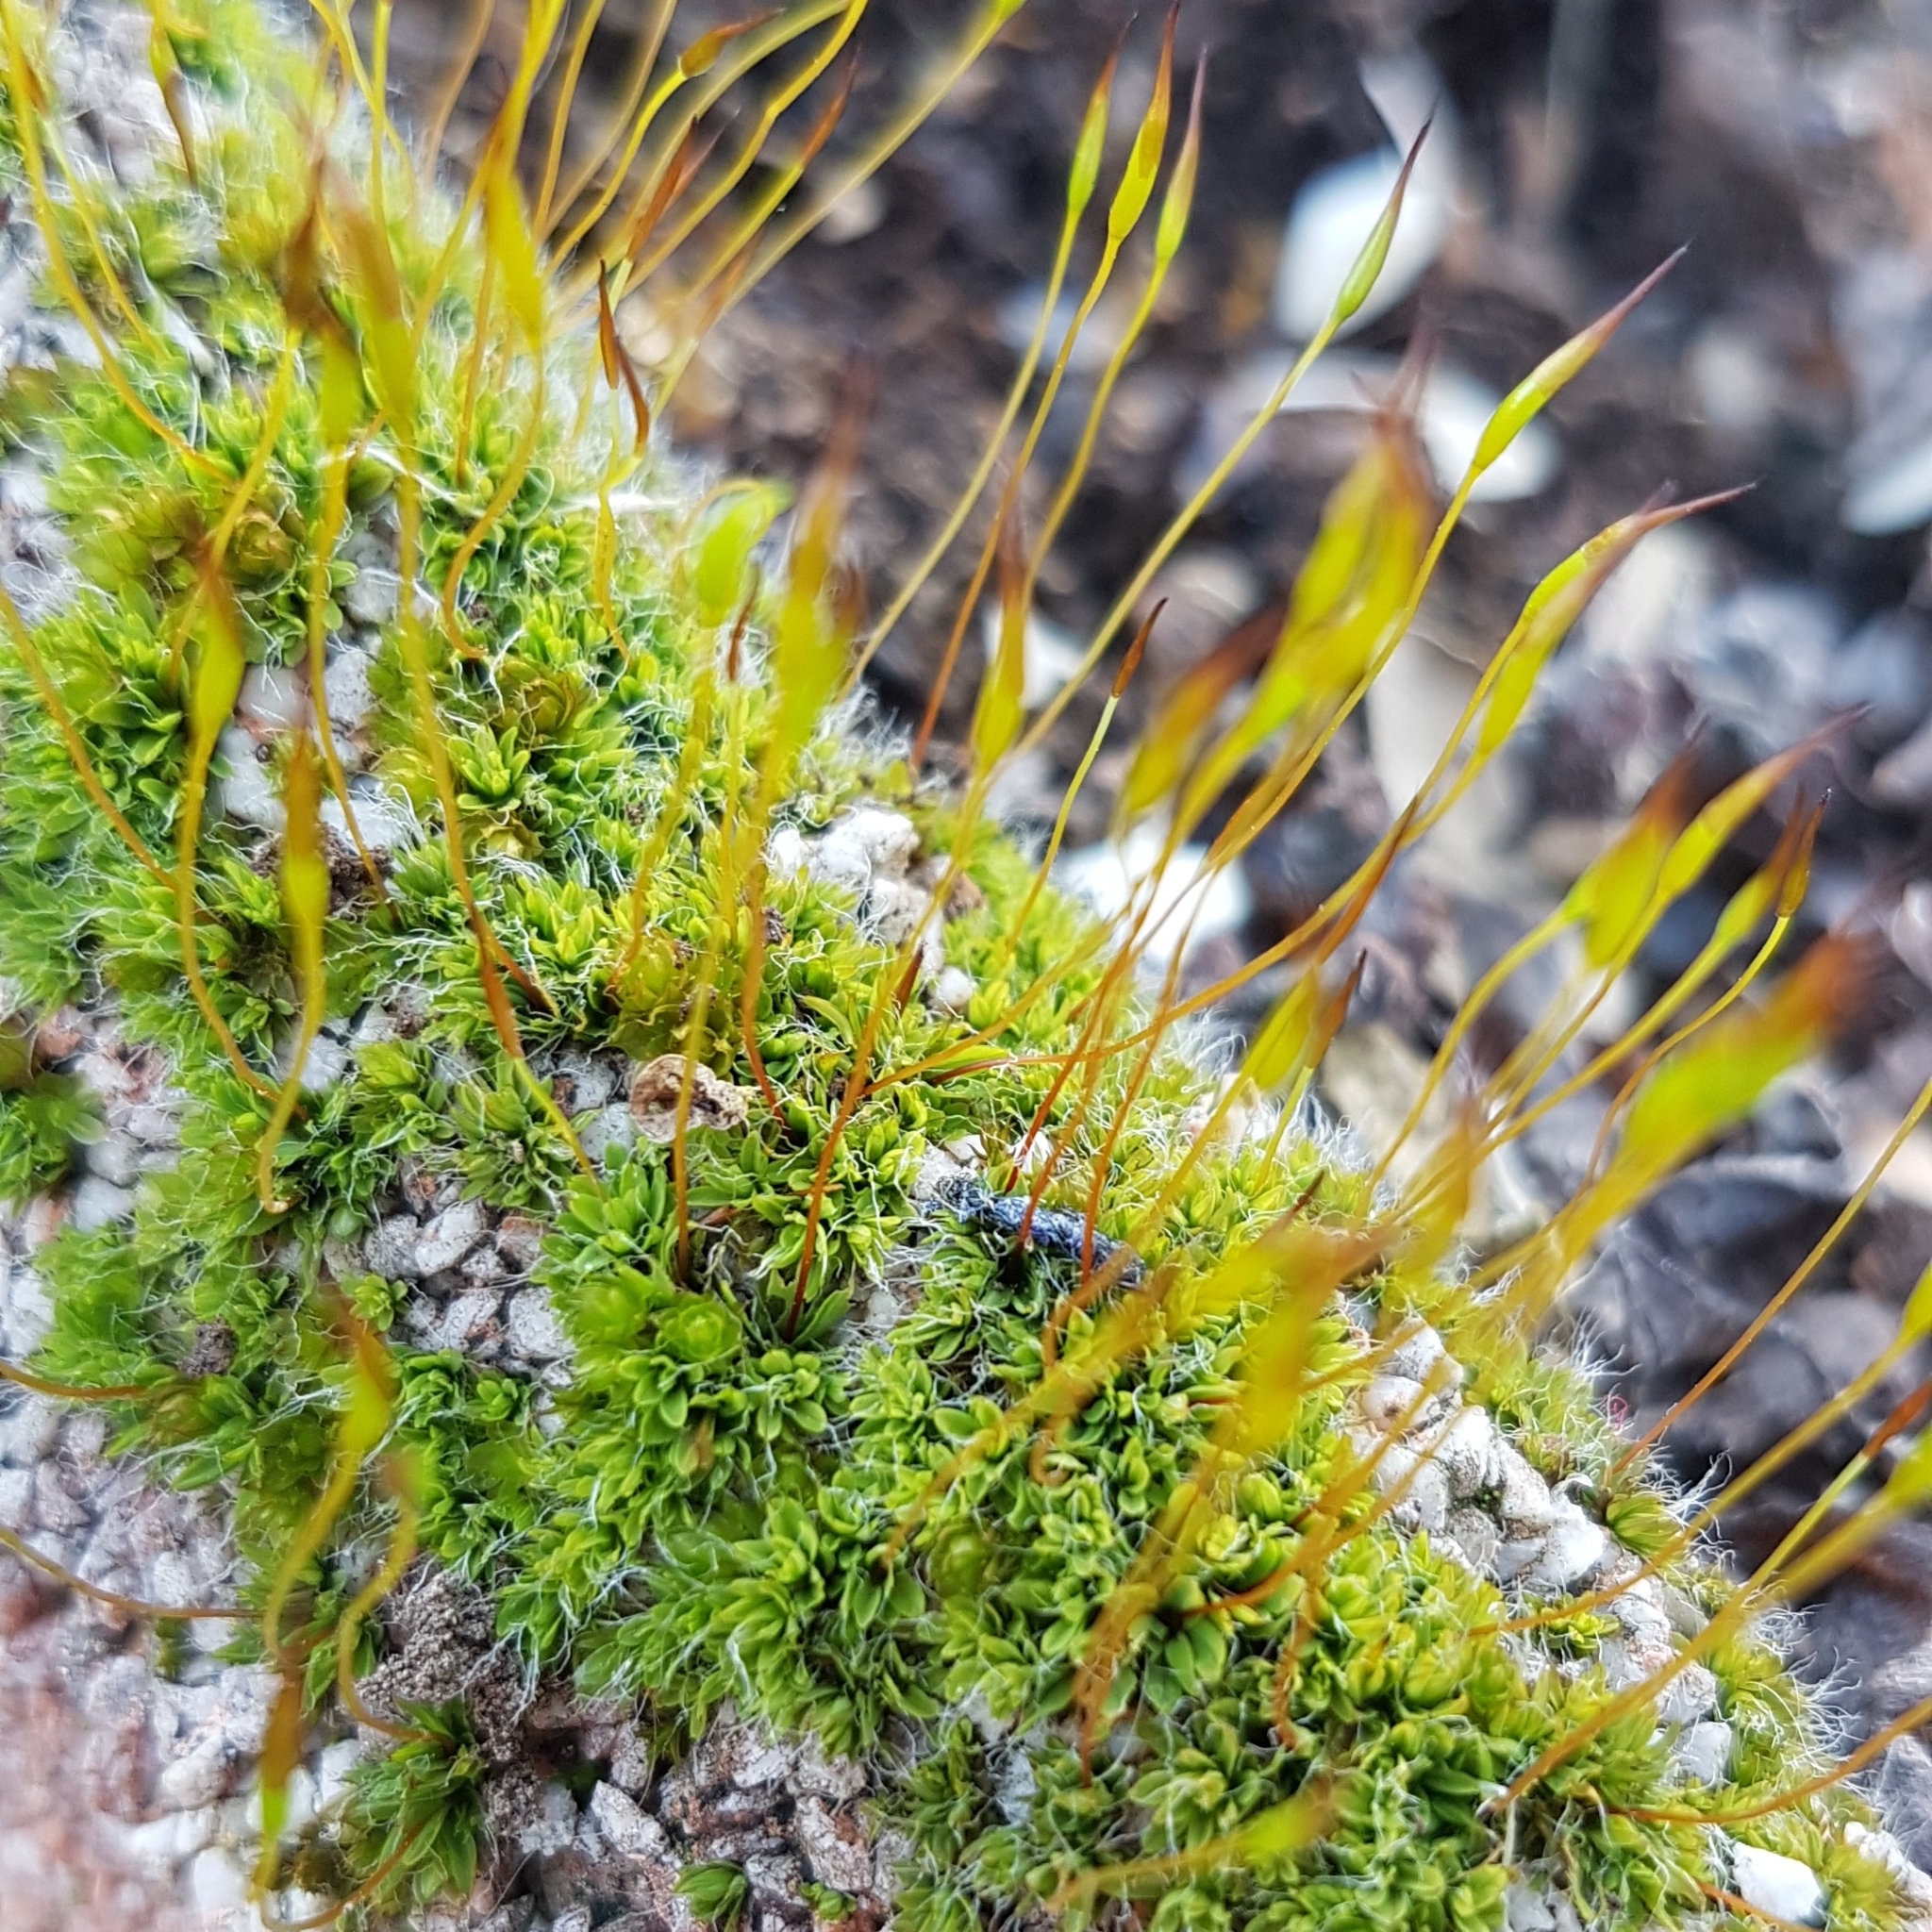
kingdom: Plantae
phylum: Bryophyta
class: Bryopsida
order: Pottiales
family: Pottiaceae
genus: Tortula
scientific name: Tortula muralis
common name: Wall screw-moss
